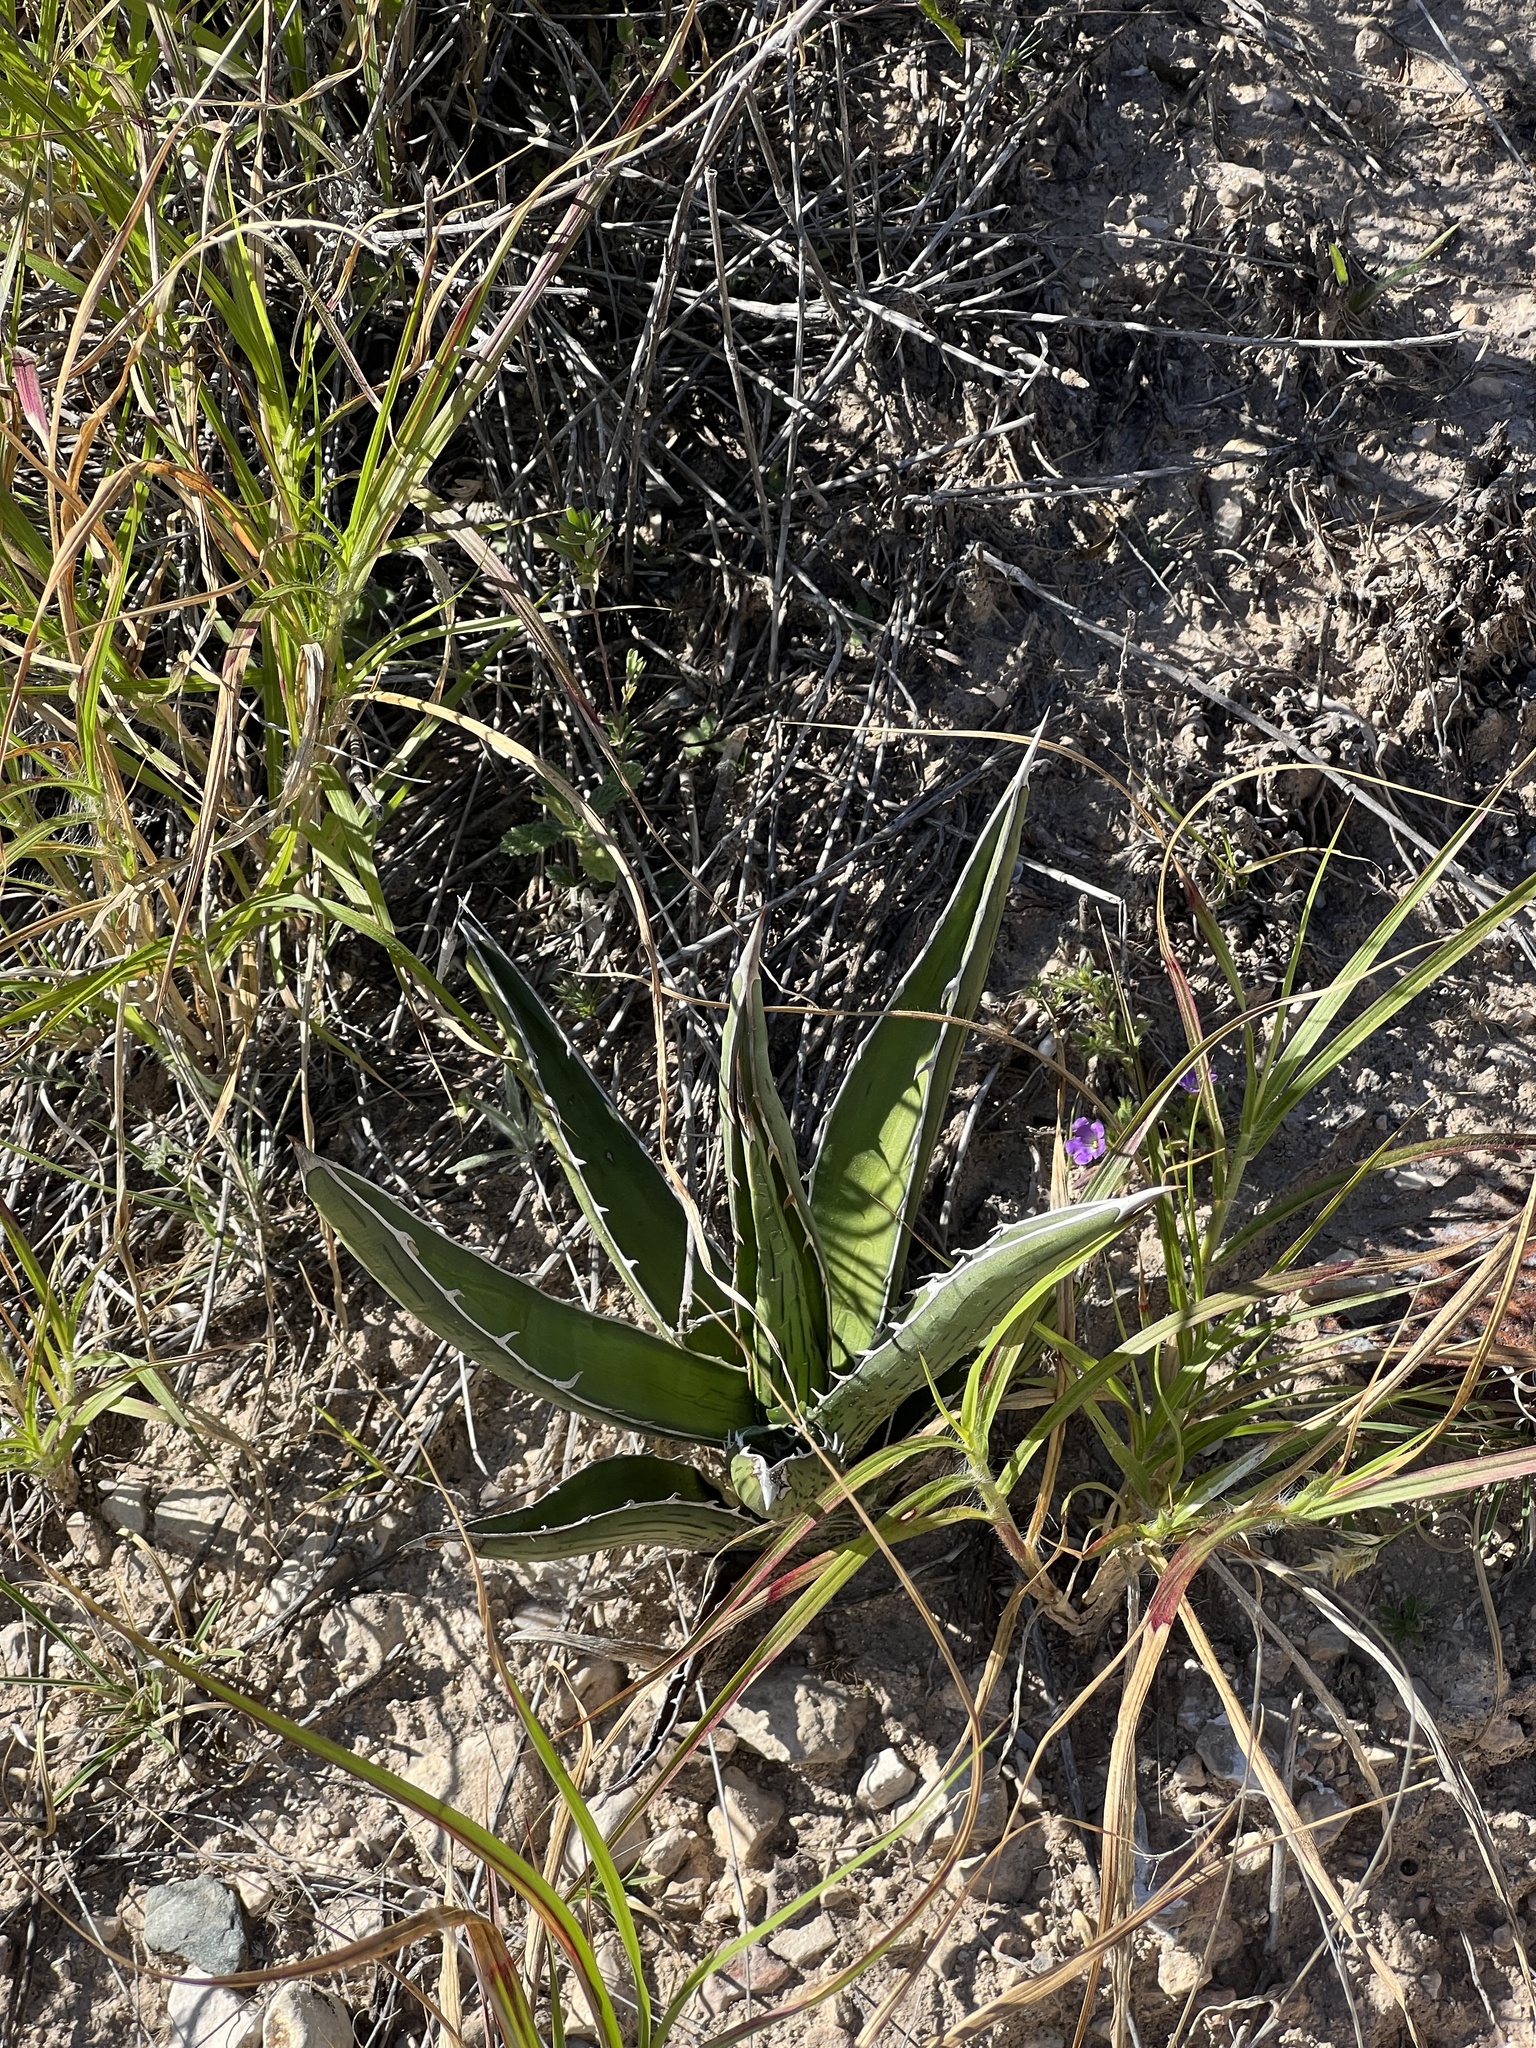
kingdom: Plantae
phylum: Tracheophyta
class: Liliopsida
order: Asparagales
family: Asparagaceae
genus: Agave
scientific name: Agave lechuguilla
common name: Lecheguilla agave
